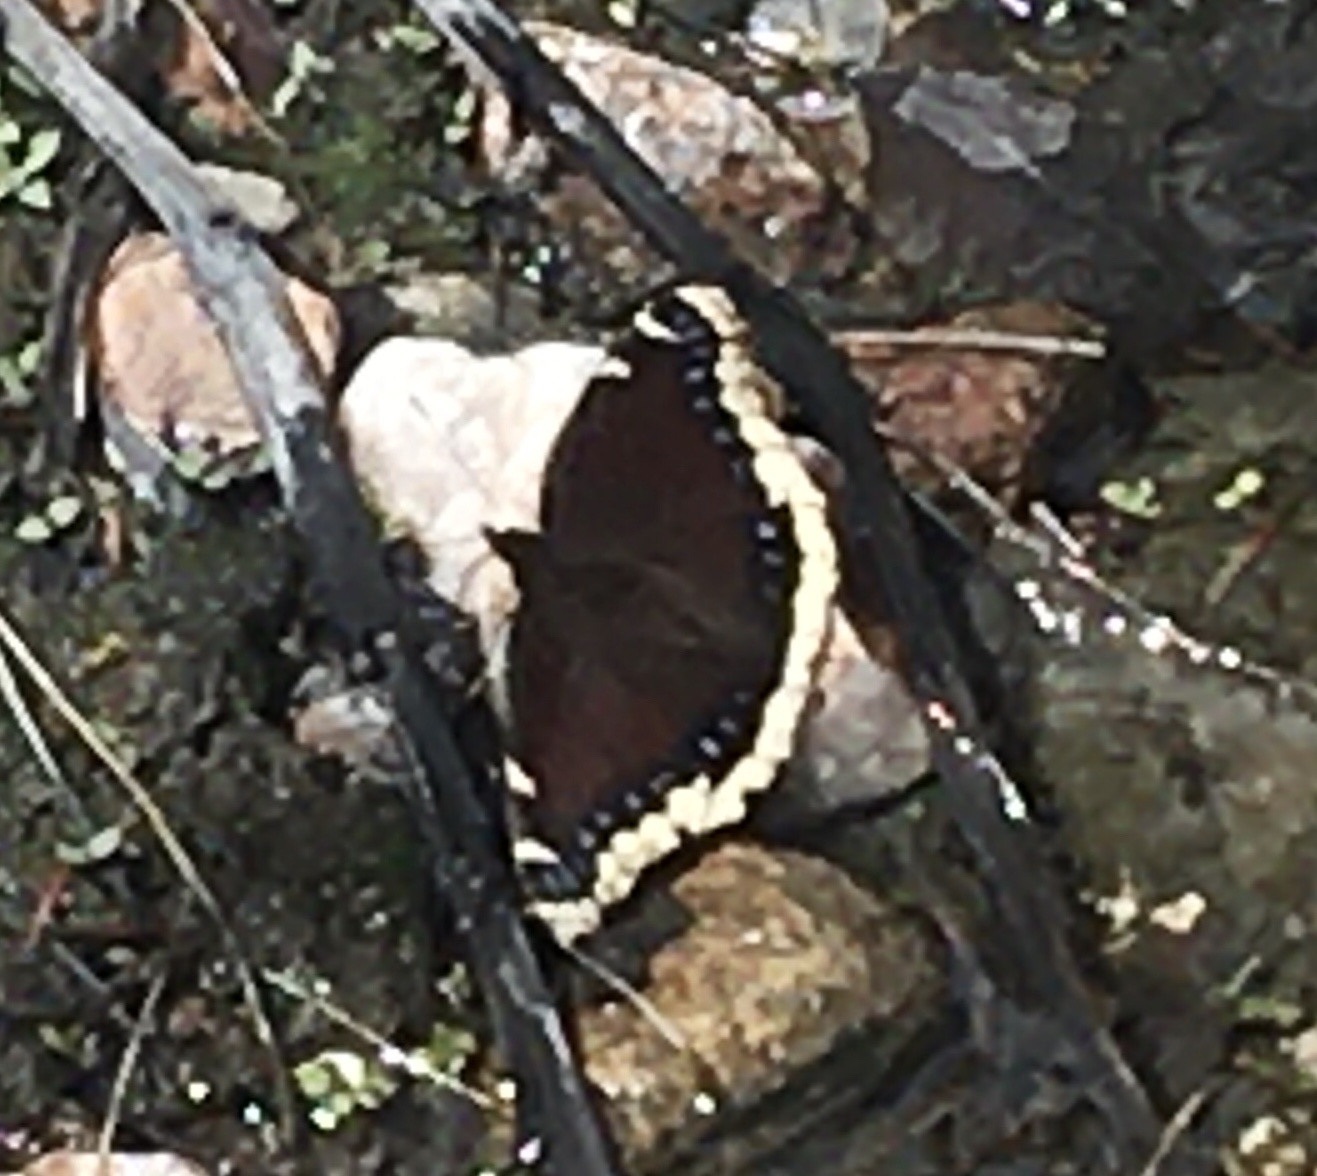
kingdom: Animalia
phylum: Arthropoda
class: Insecta
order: Lepidoptera
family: Nymphalidae
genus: Nymphalis
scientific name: Nymphalis antiopa
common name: Camberwell beauty
